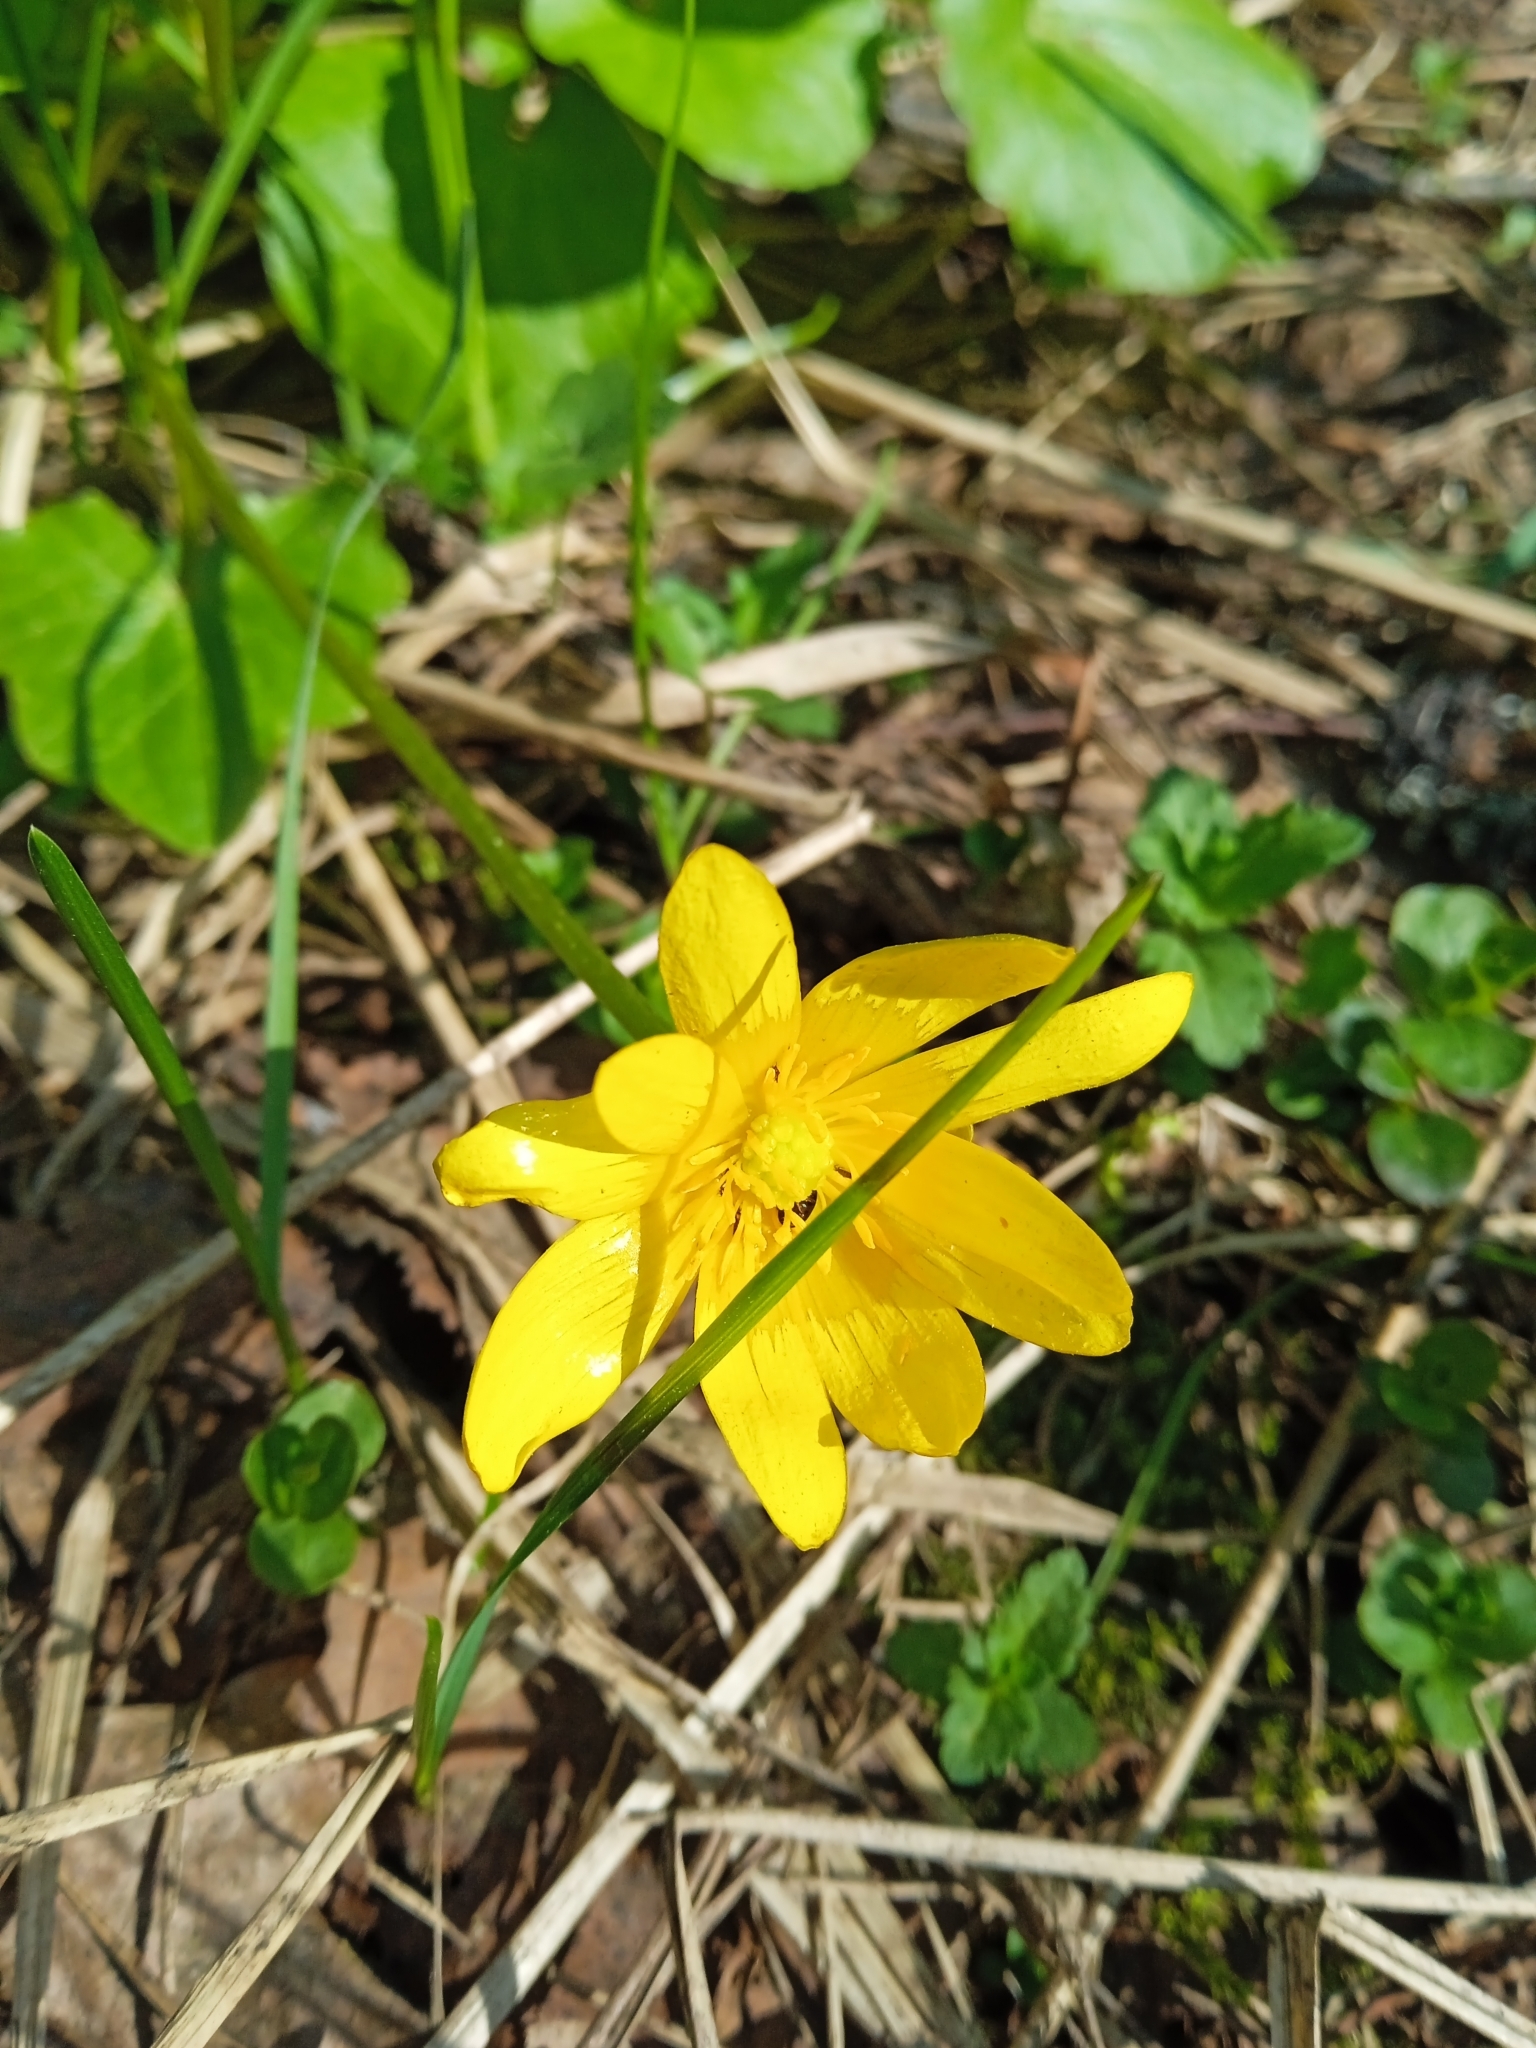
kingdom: Plantae
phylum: Tracheophyta
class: Magnoliopsida
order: Ranunculales
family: Ranunculaceae
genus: Ficaria
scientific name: Ficaria verna
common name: Lesser celandine
